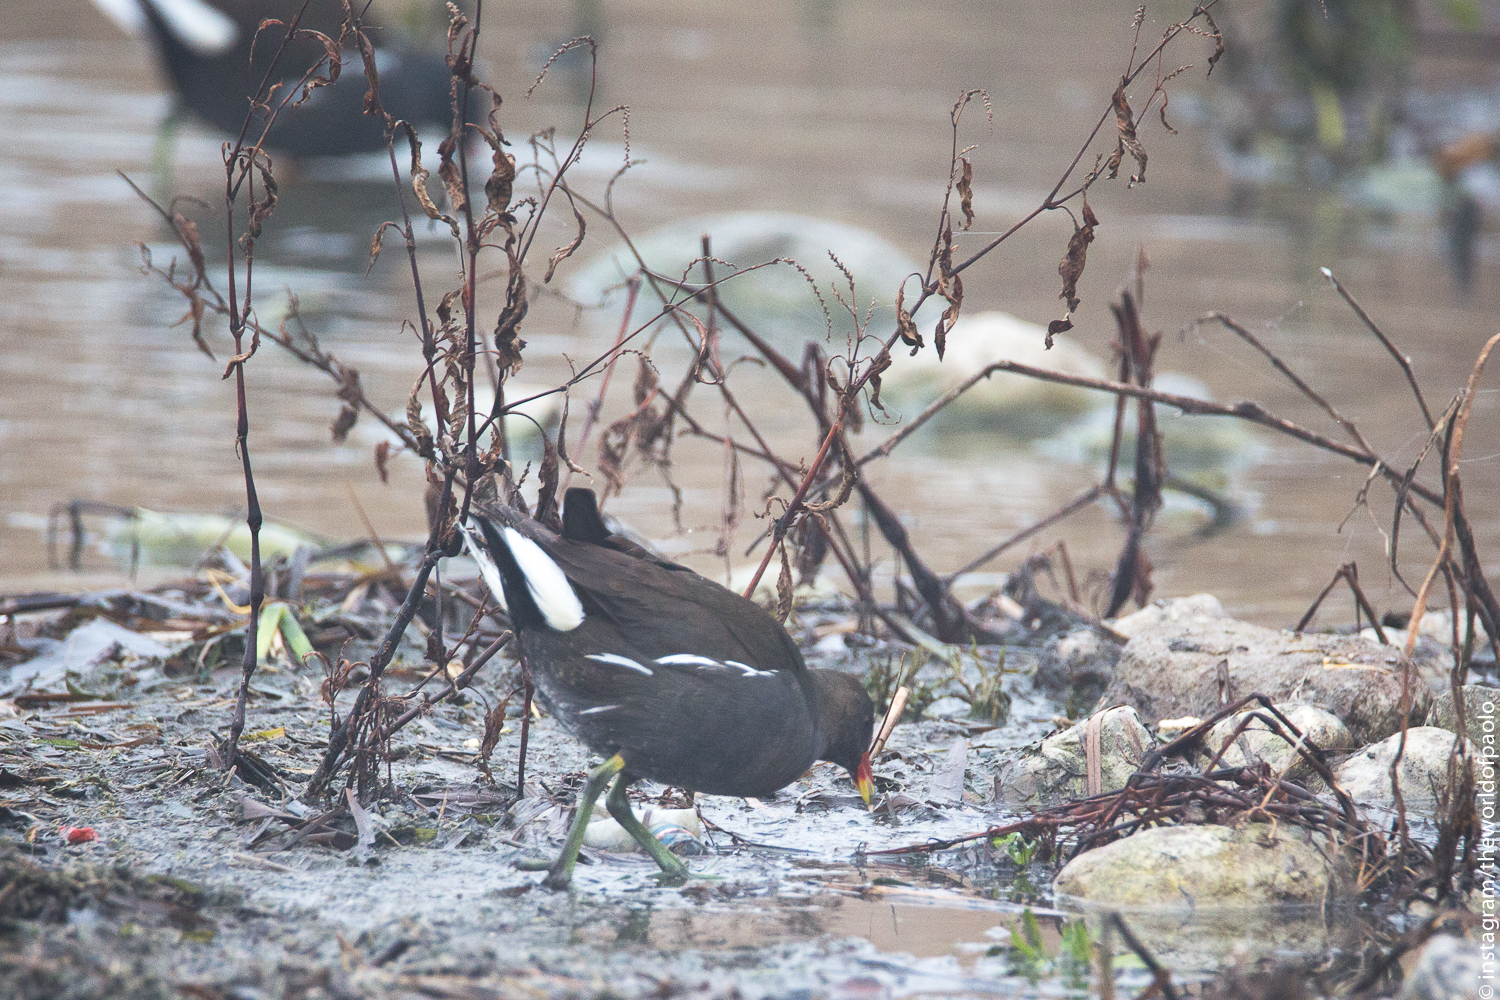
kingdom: Animalia
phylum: Chordata
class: Aves
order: Gruiformes
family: Rallidae
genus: Gallinula
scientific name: Gallinula chloropus
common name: Common moorhen
